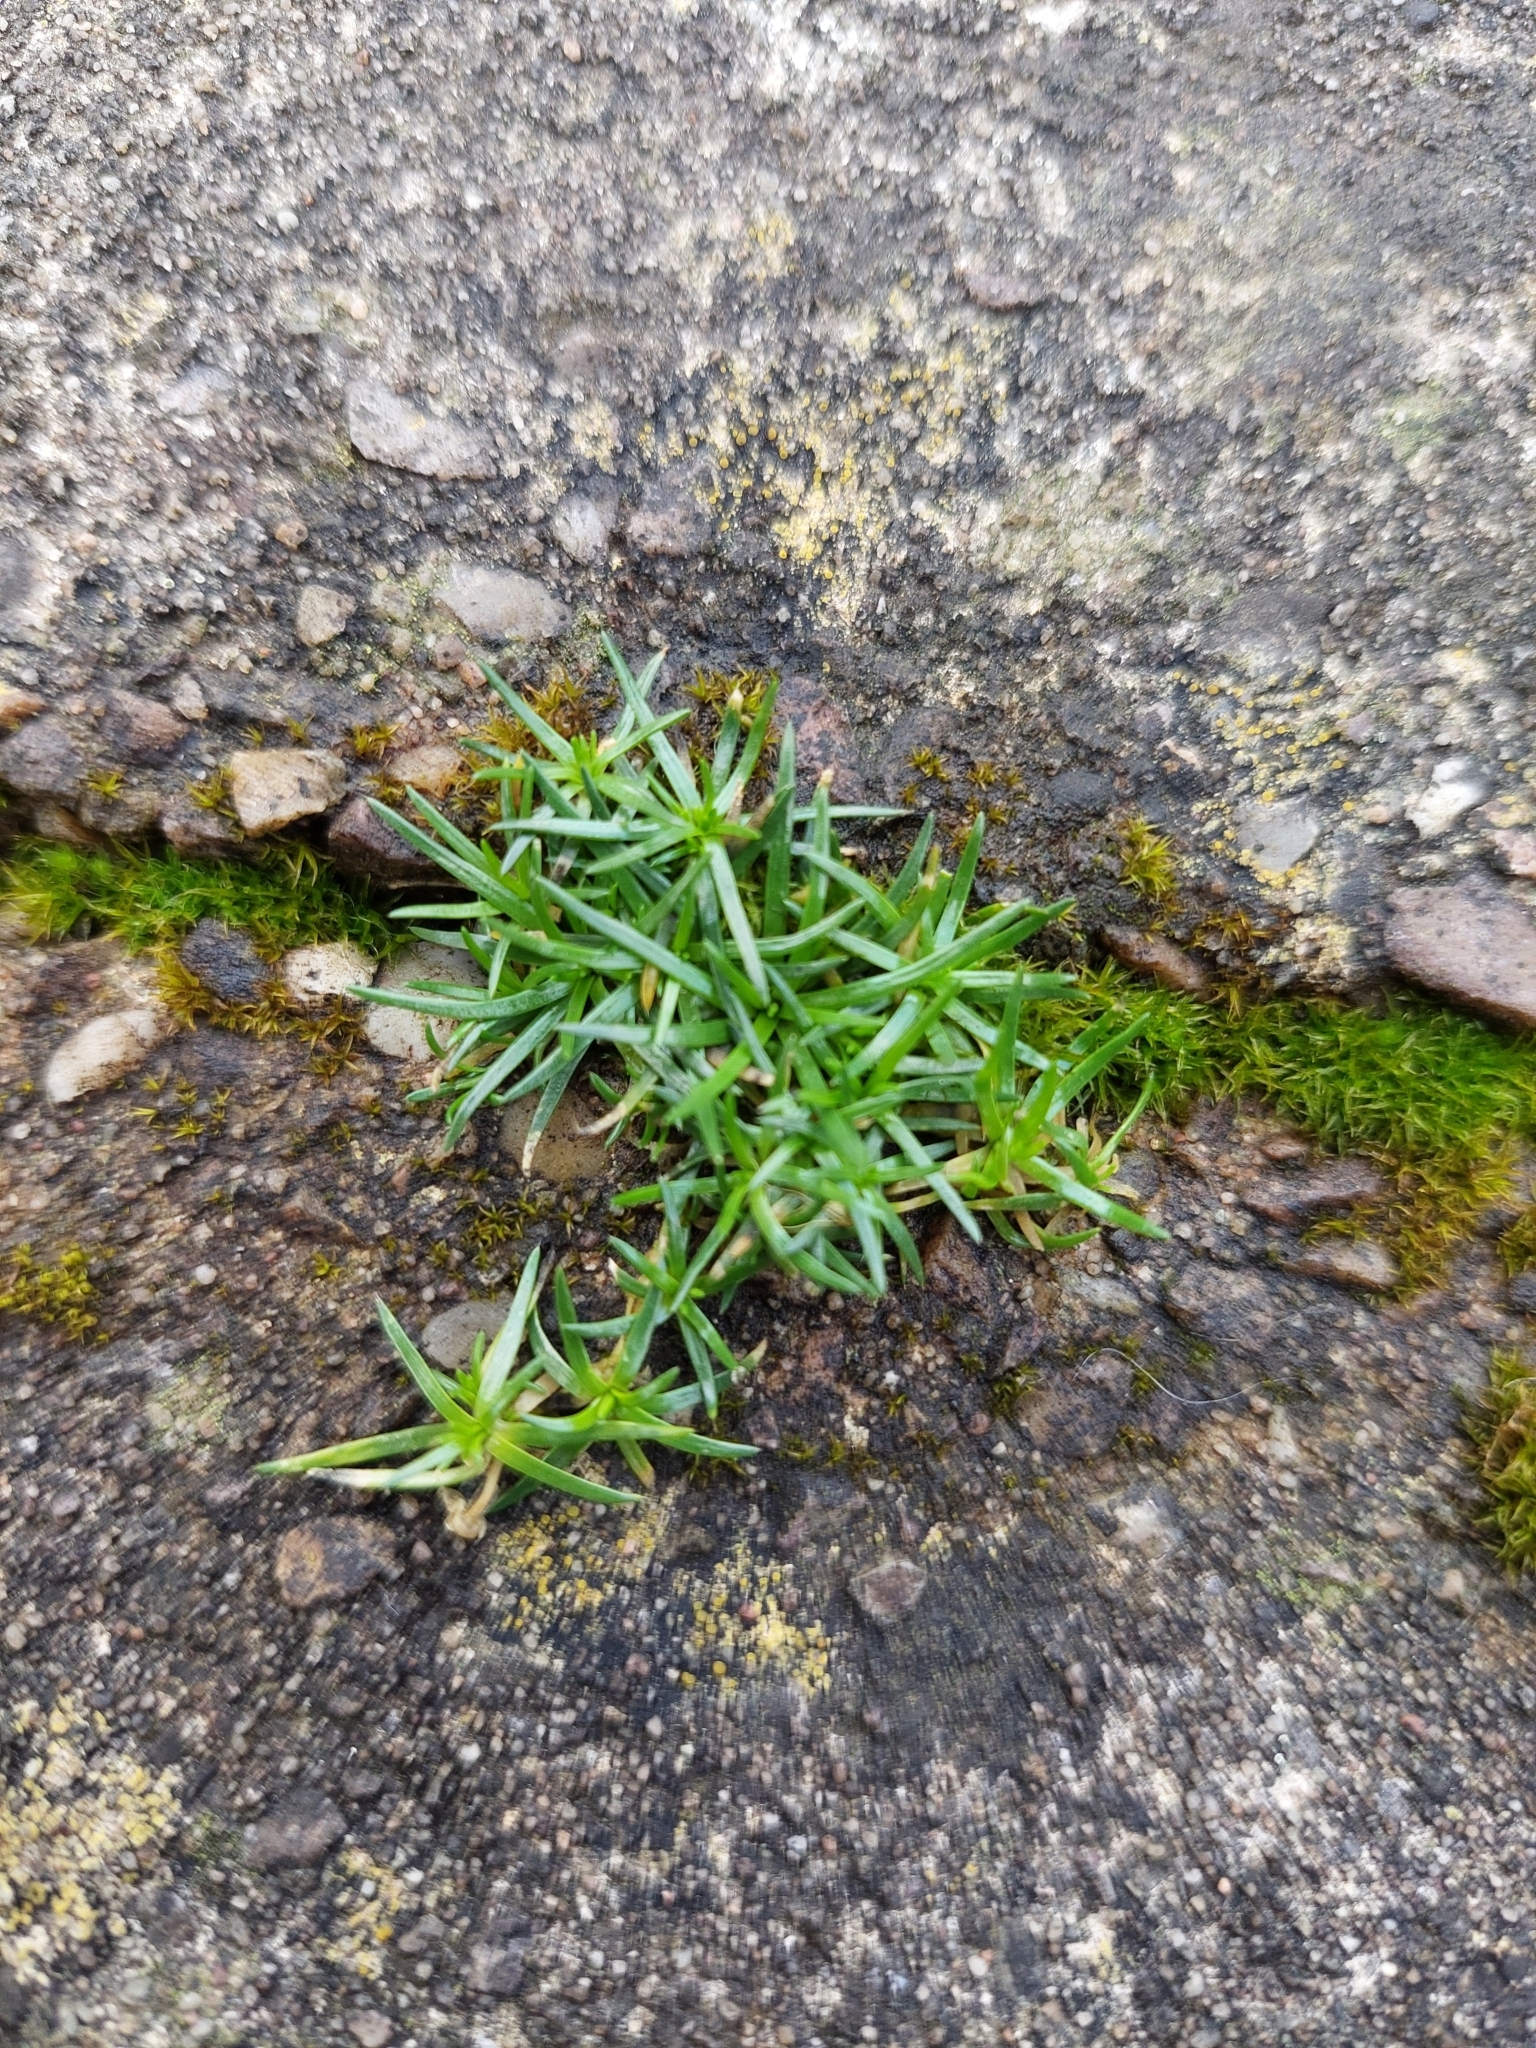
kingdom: Plantae
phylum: Tracheophyta
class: Magnoliopsida
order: Caryophyllales
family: Caryophyllaceae
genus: Sagina
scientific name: Sagina procumbens
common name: Procumbent pearlwort
